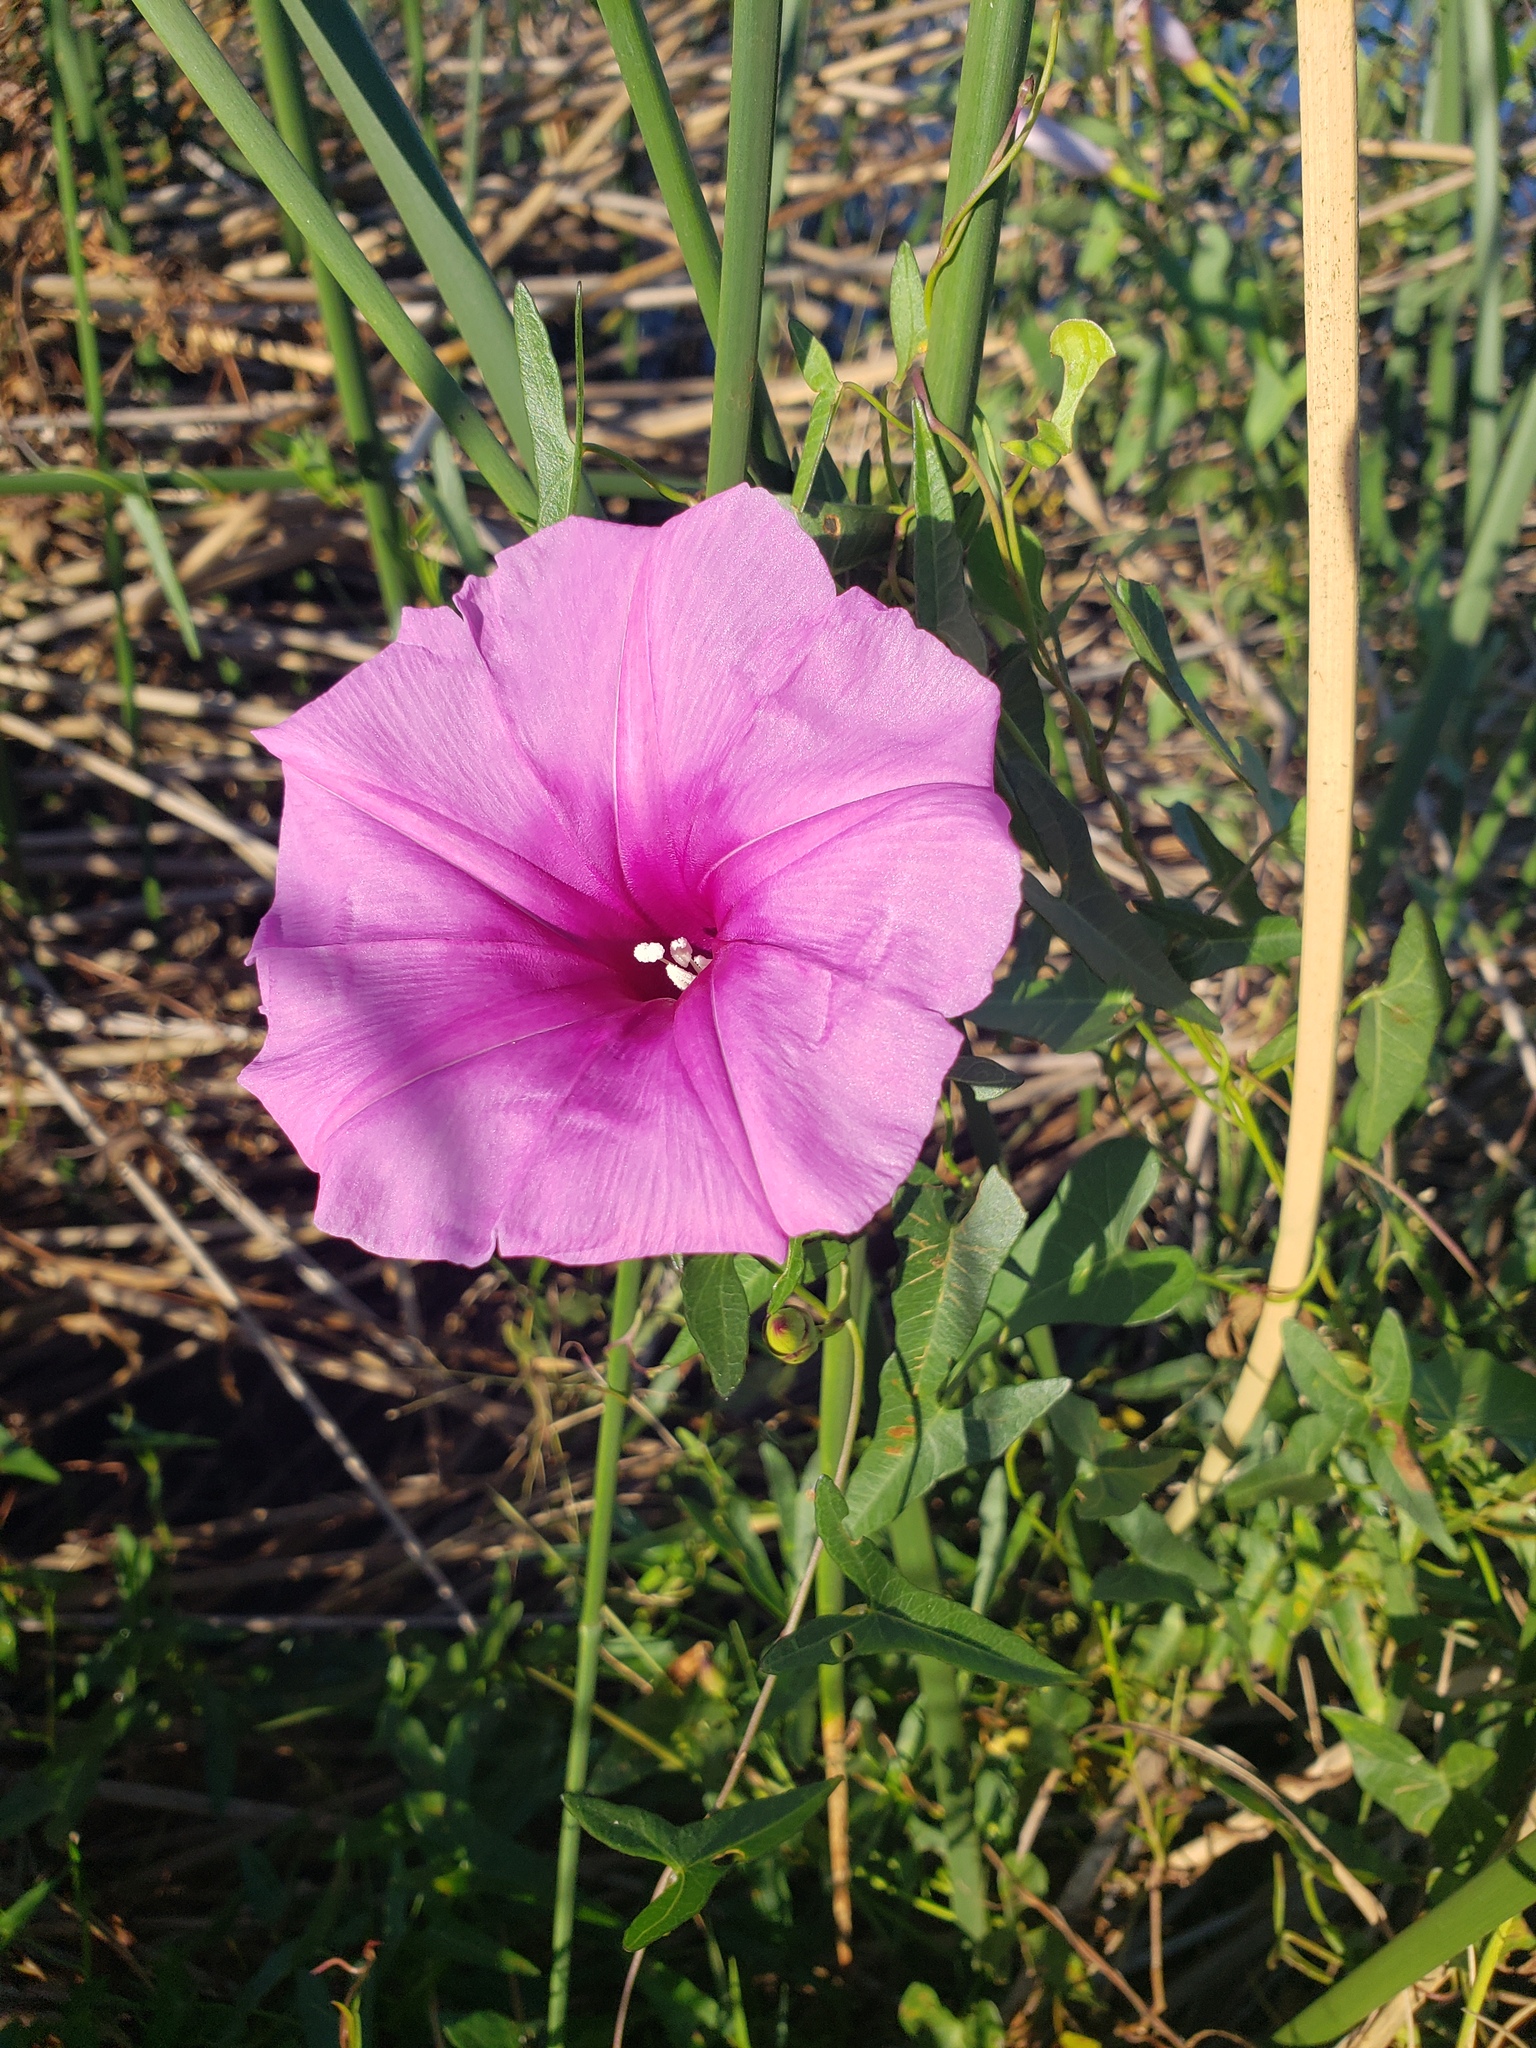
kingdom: Plantae
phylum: Tracheophyta
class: Magnoliopsida
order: Solanales
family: Convolvulaceae
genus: Ipomoea
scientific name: Ipomoea sagittata
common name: Saltmarsh morning glory
